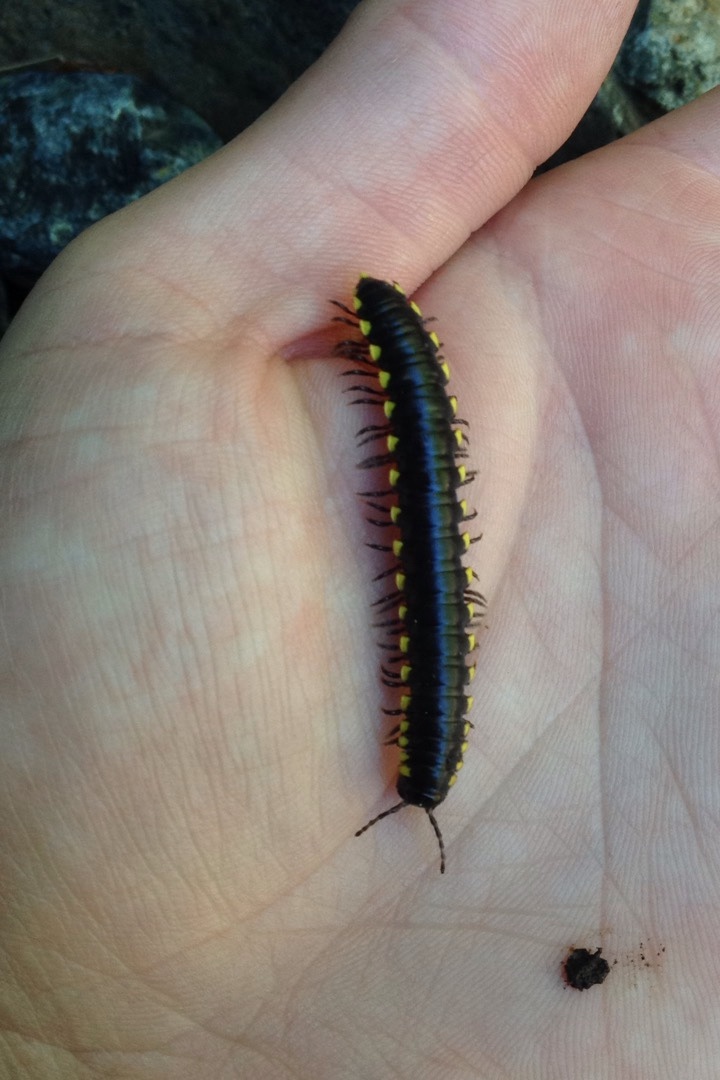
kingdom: Animalia
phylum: Arthropoda
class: Diplopoda
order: Polydesmida
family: Xystodesmidae
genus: Harpaphe
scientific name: Harpaphe haydeniana
